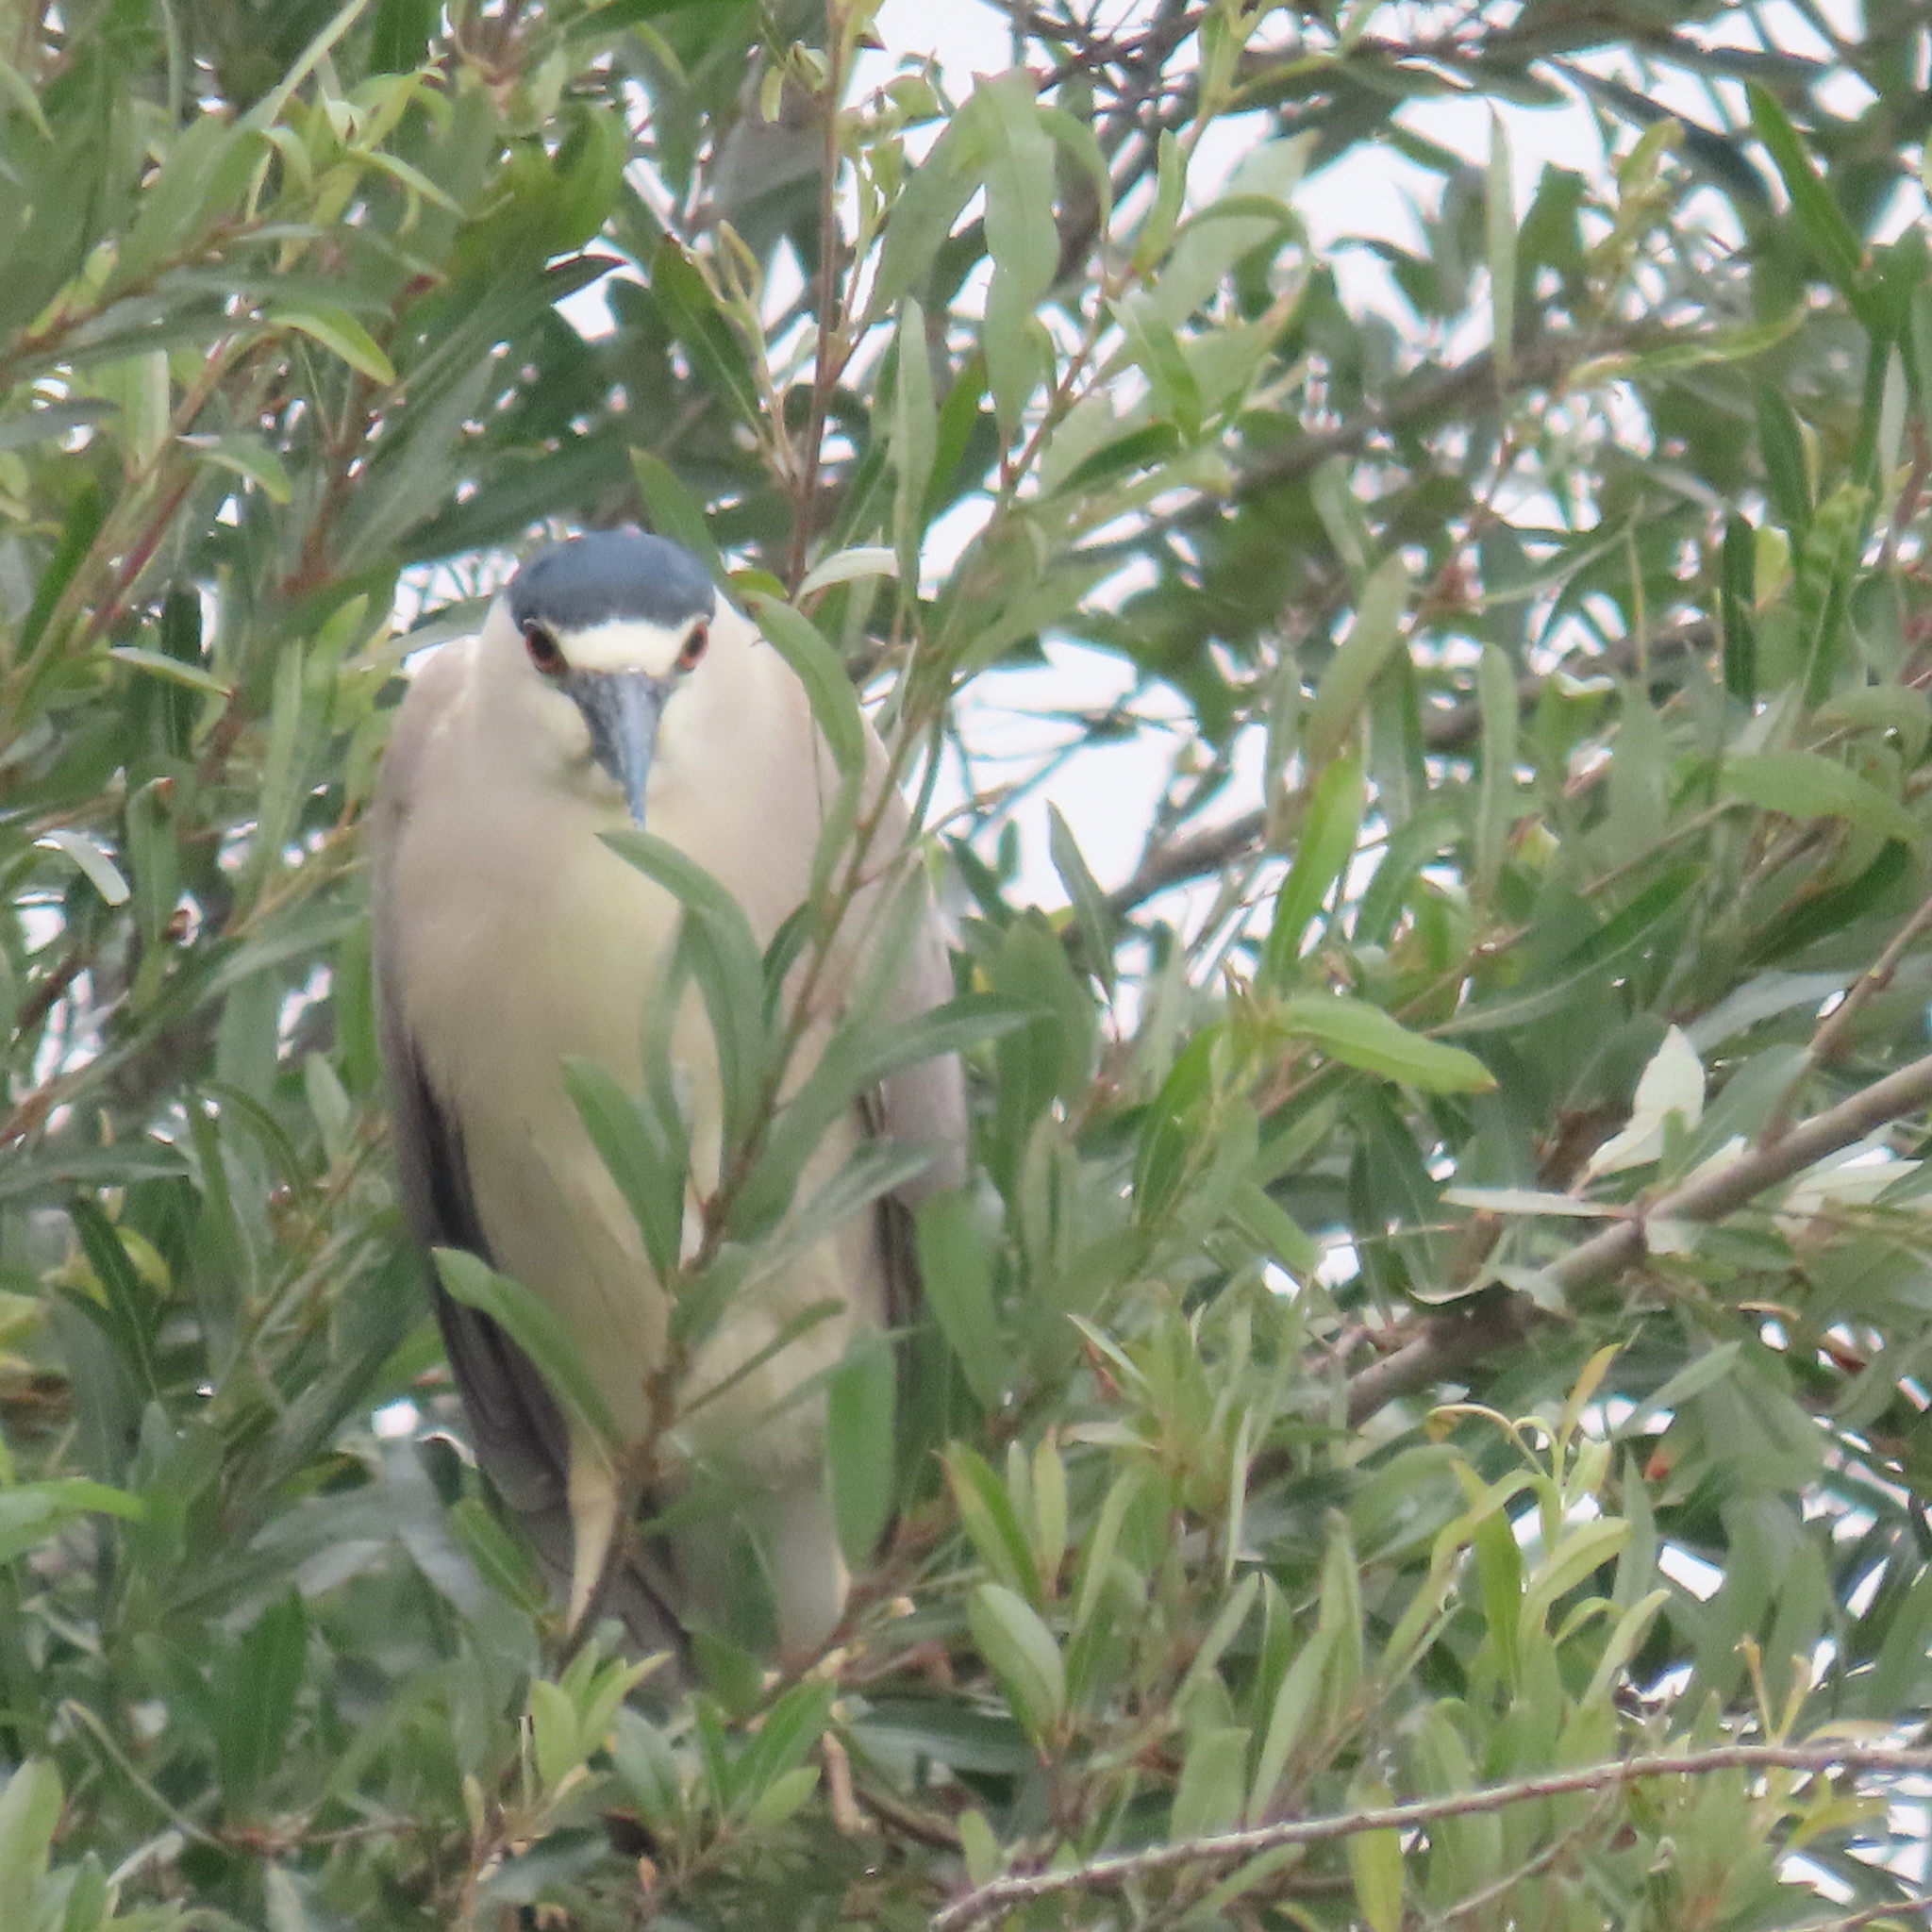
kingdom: Animalia
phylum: Chordata
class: Aves
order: Pelecaniformes
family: Ardeidae
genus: Nycticorax
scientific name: Nycticorax nycticorax
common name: Black-crowned night heron
